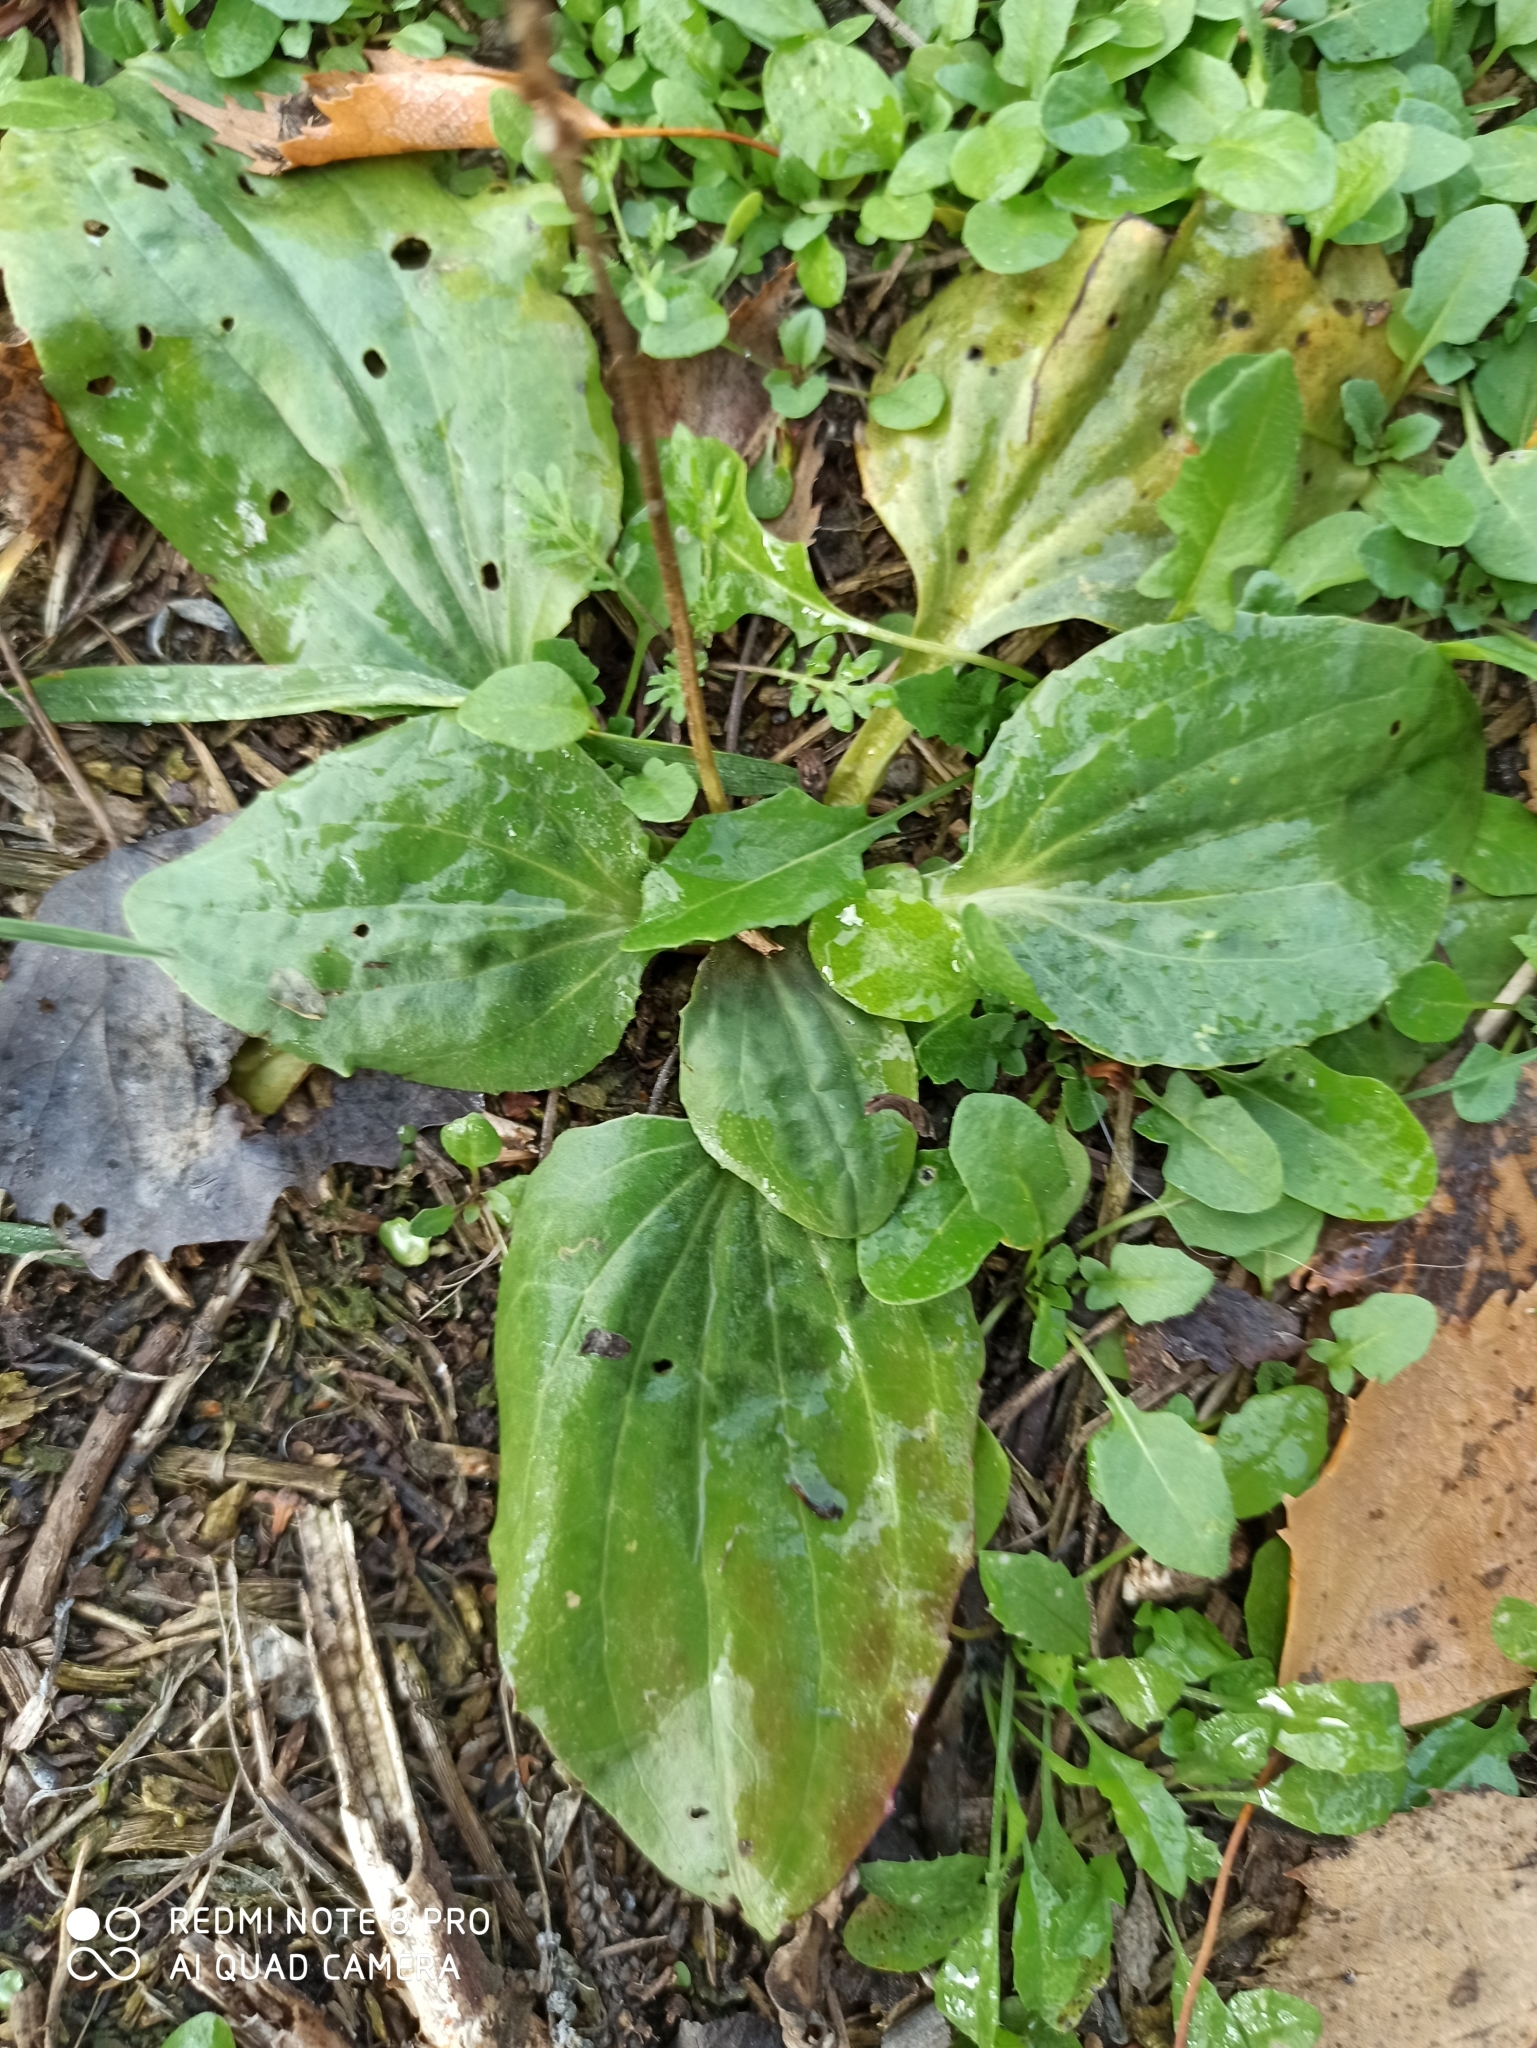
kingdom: Plantae
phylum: Tracheophyta
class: Magnoliopsida
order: Lamiales
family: Plantaginaceae
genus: Plantago
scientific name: Plantago major
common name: Common plantain
